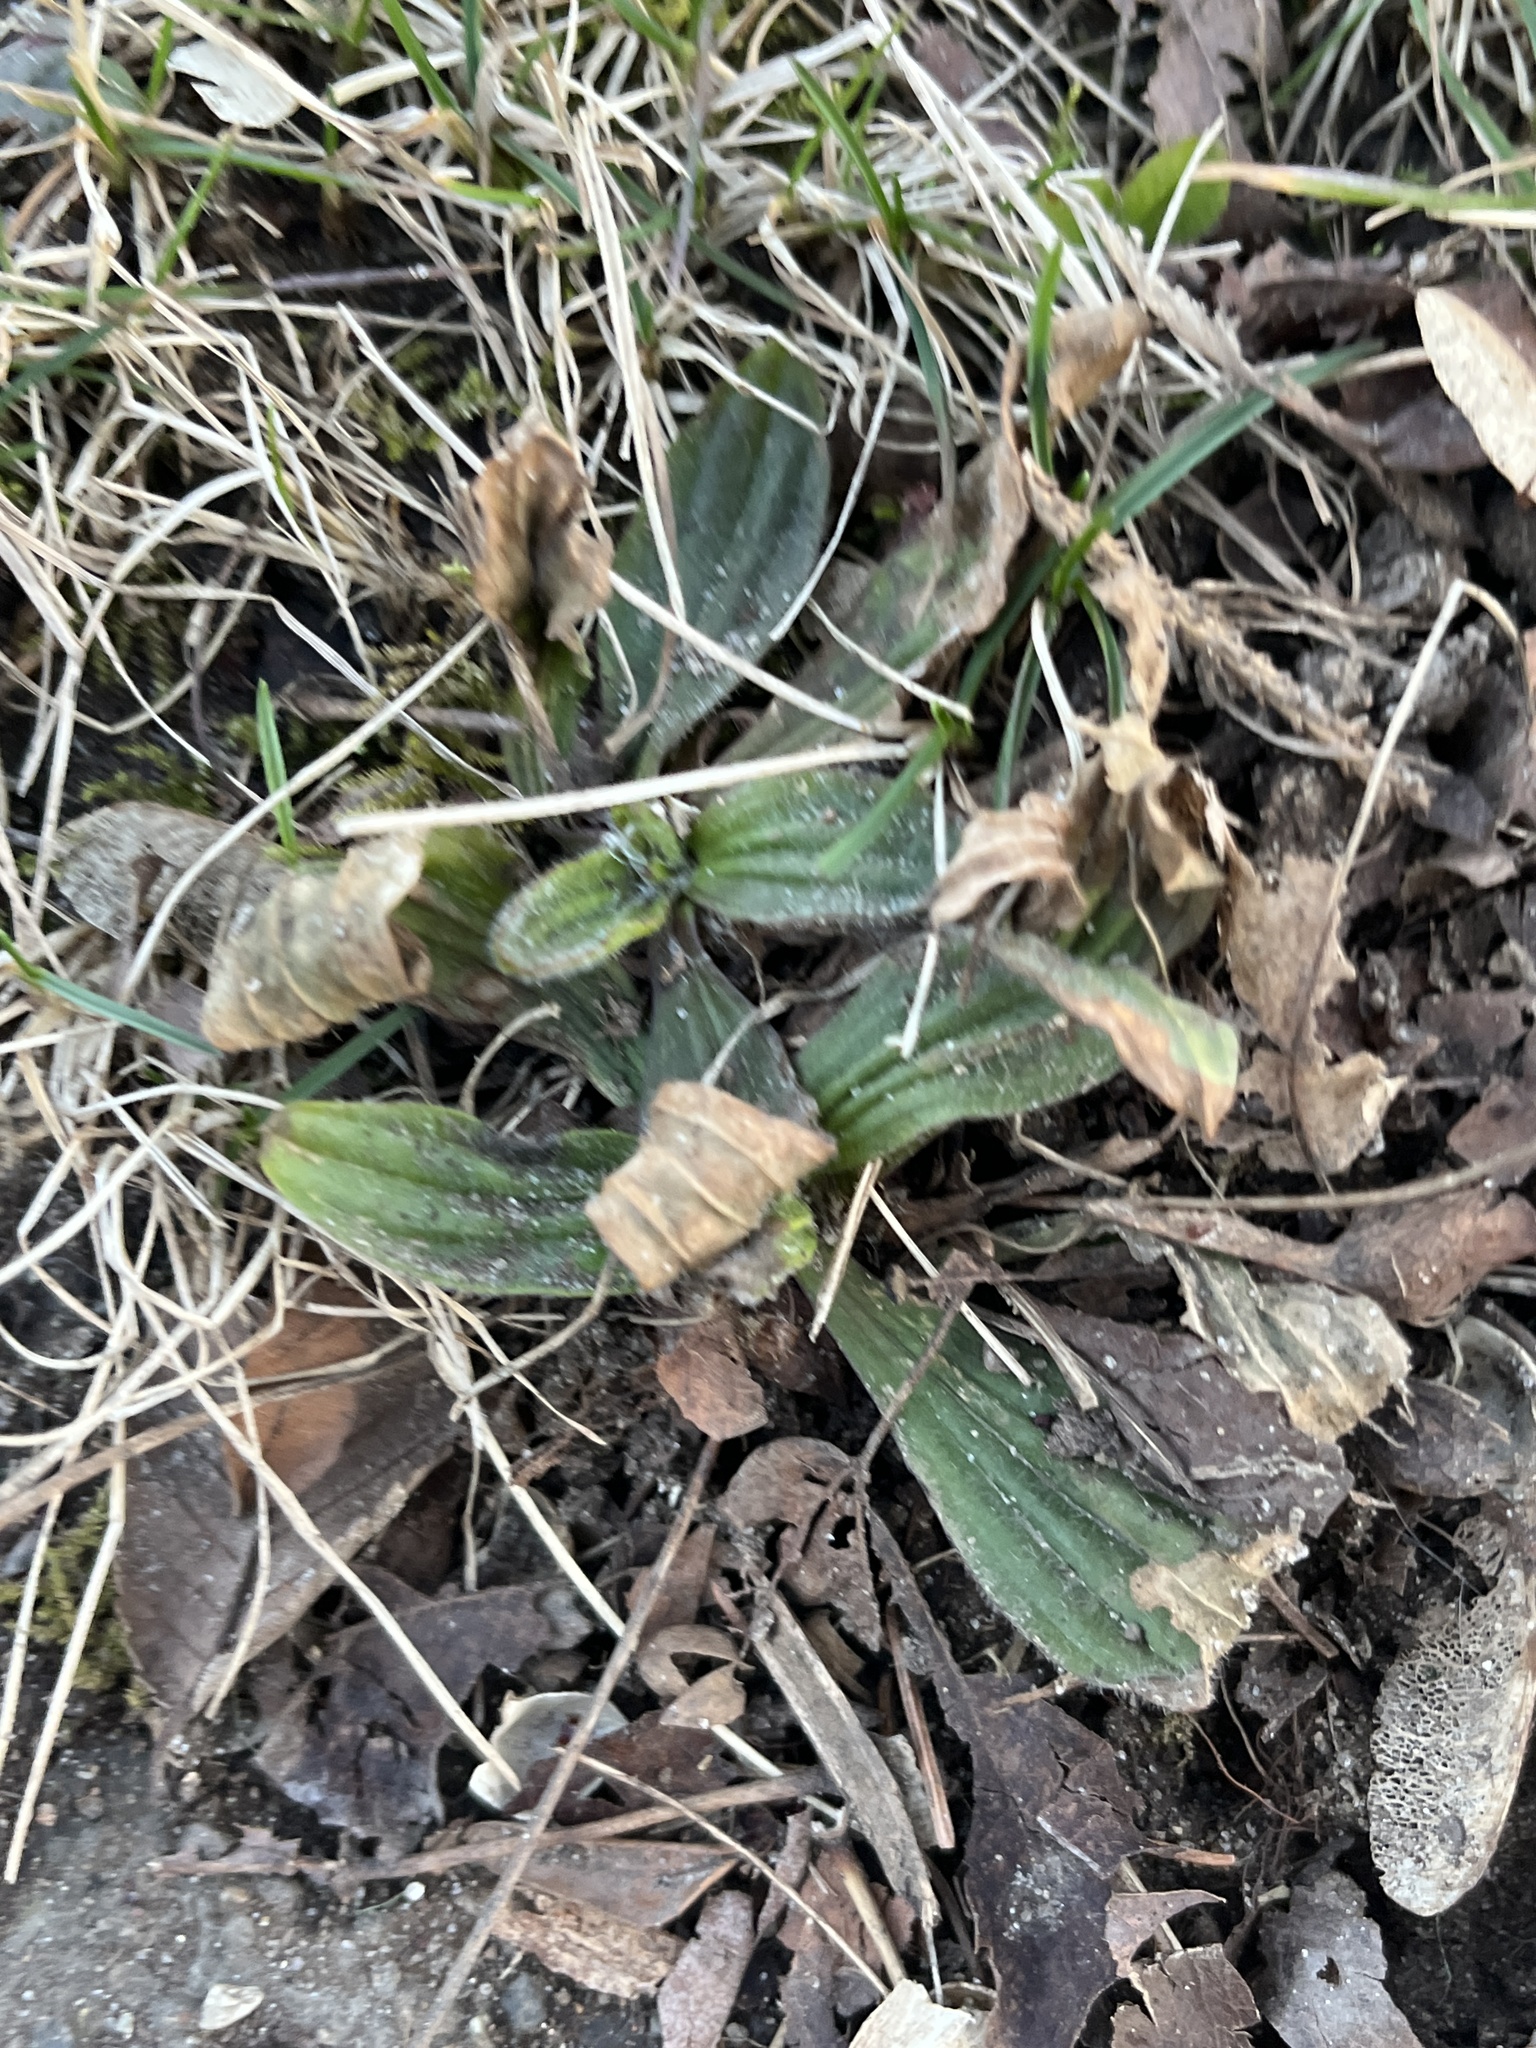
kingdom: Plantae
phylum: Tracheophyta
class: Magnoliopsida
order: Lamiales
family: Plantaginaceae
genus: Plantago
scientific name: Plantago lanceolata
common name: Ribwort plantain
